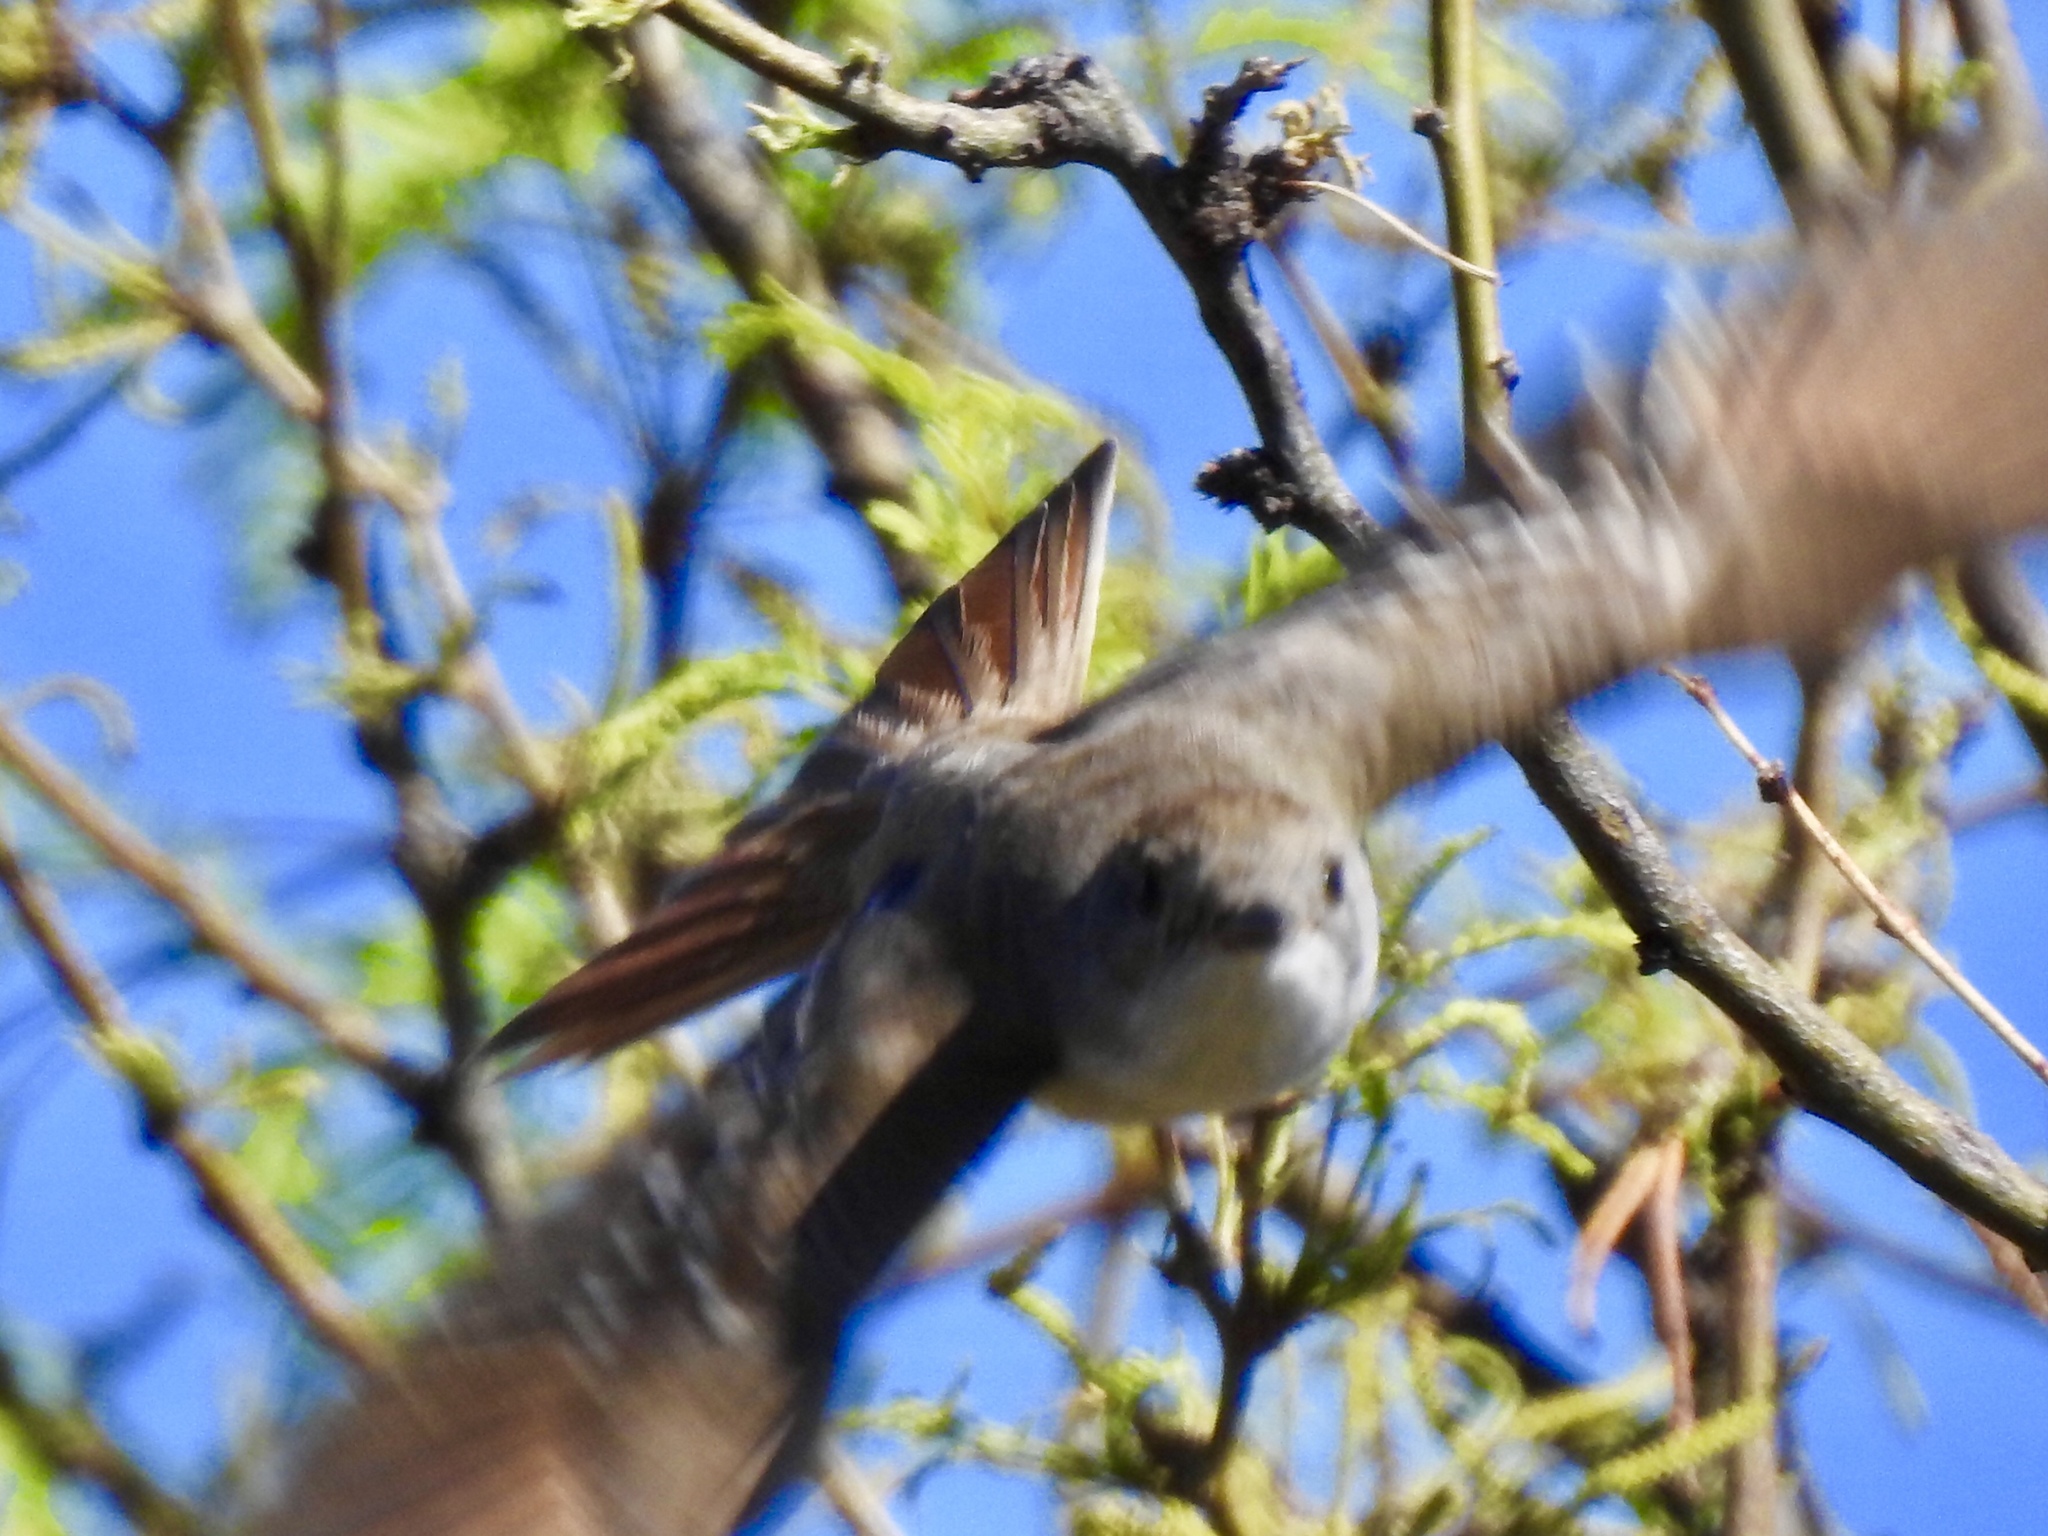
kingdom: Animalia
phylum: Chordata
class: Aves
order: Passeriformes
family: Tyrannidae
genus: Myiarchus
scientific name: Myiarchus
